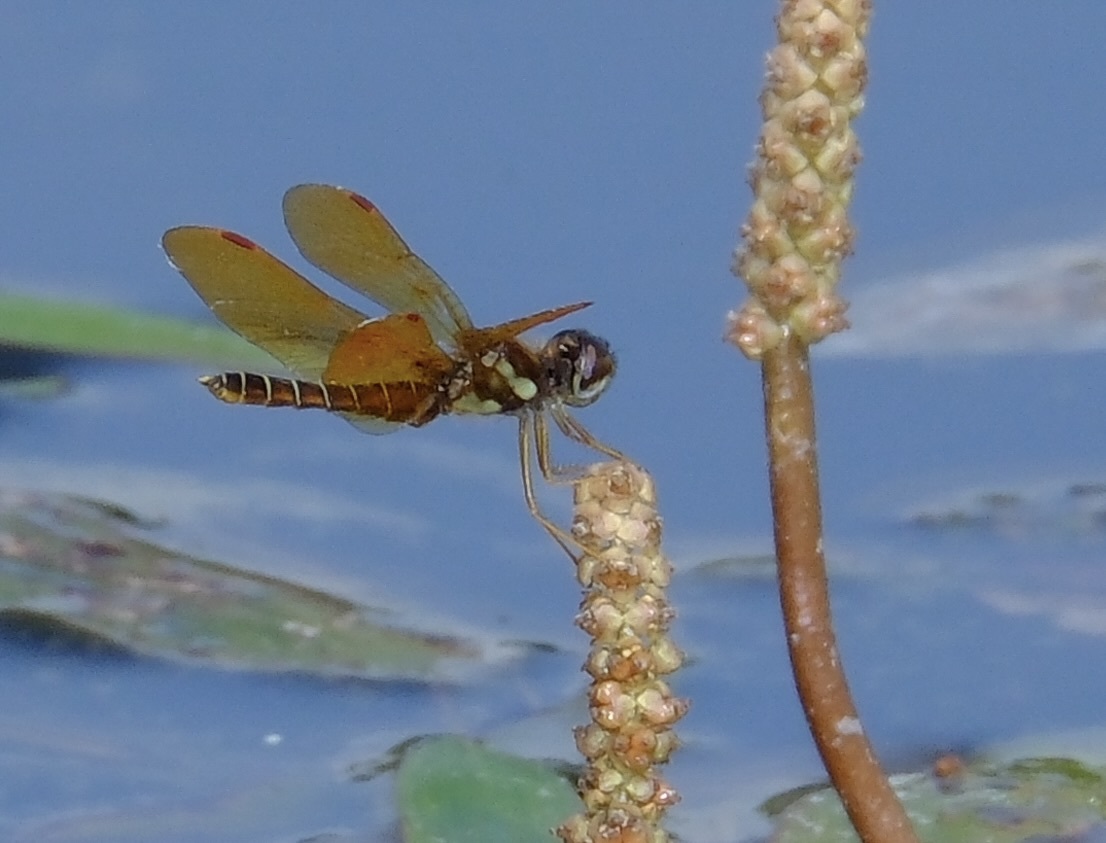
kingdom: Animalia
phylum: Arthropoda
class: Insecta
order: Odonata
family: Libellulidae
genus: Perithemis
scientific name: Perithemis tenera
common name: Eastern amberwing
